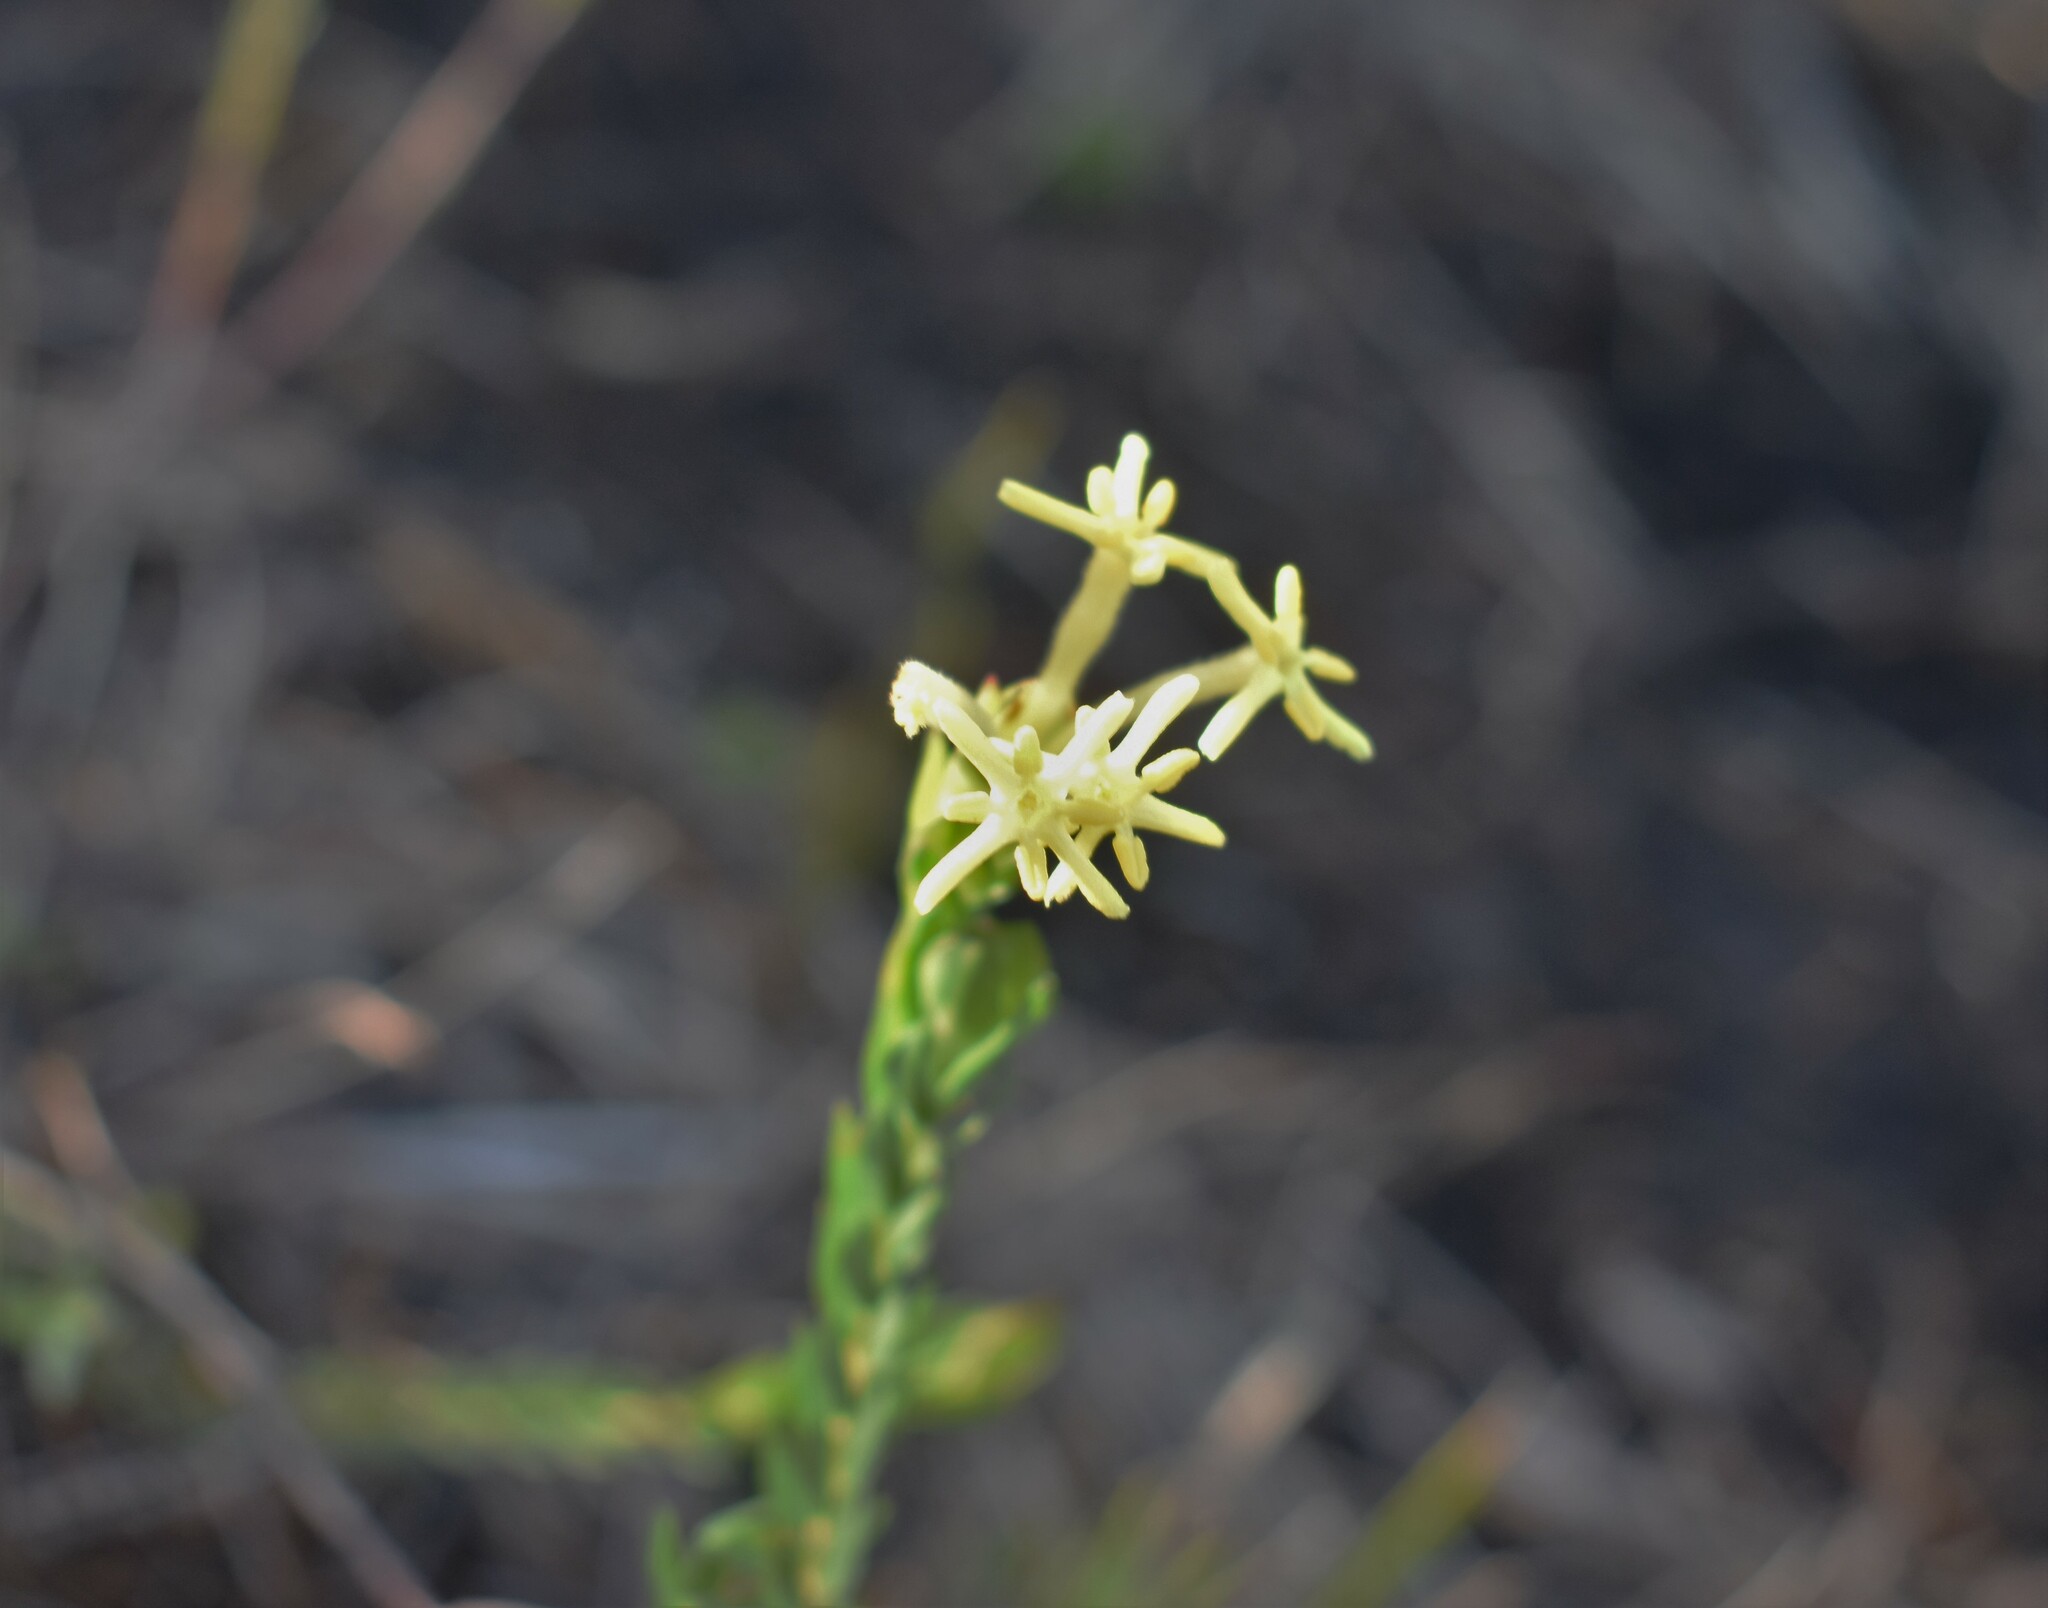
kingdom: Plantae
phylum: Tracheophyta
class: Magnoliopsida
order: Malvales
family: Thymelaeaceae
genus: Gnidia
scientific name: Gnidia oppositifolia
